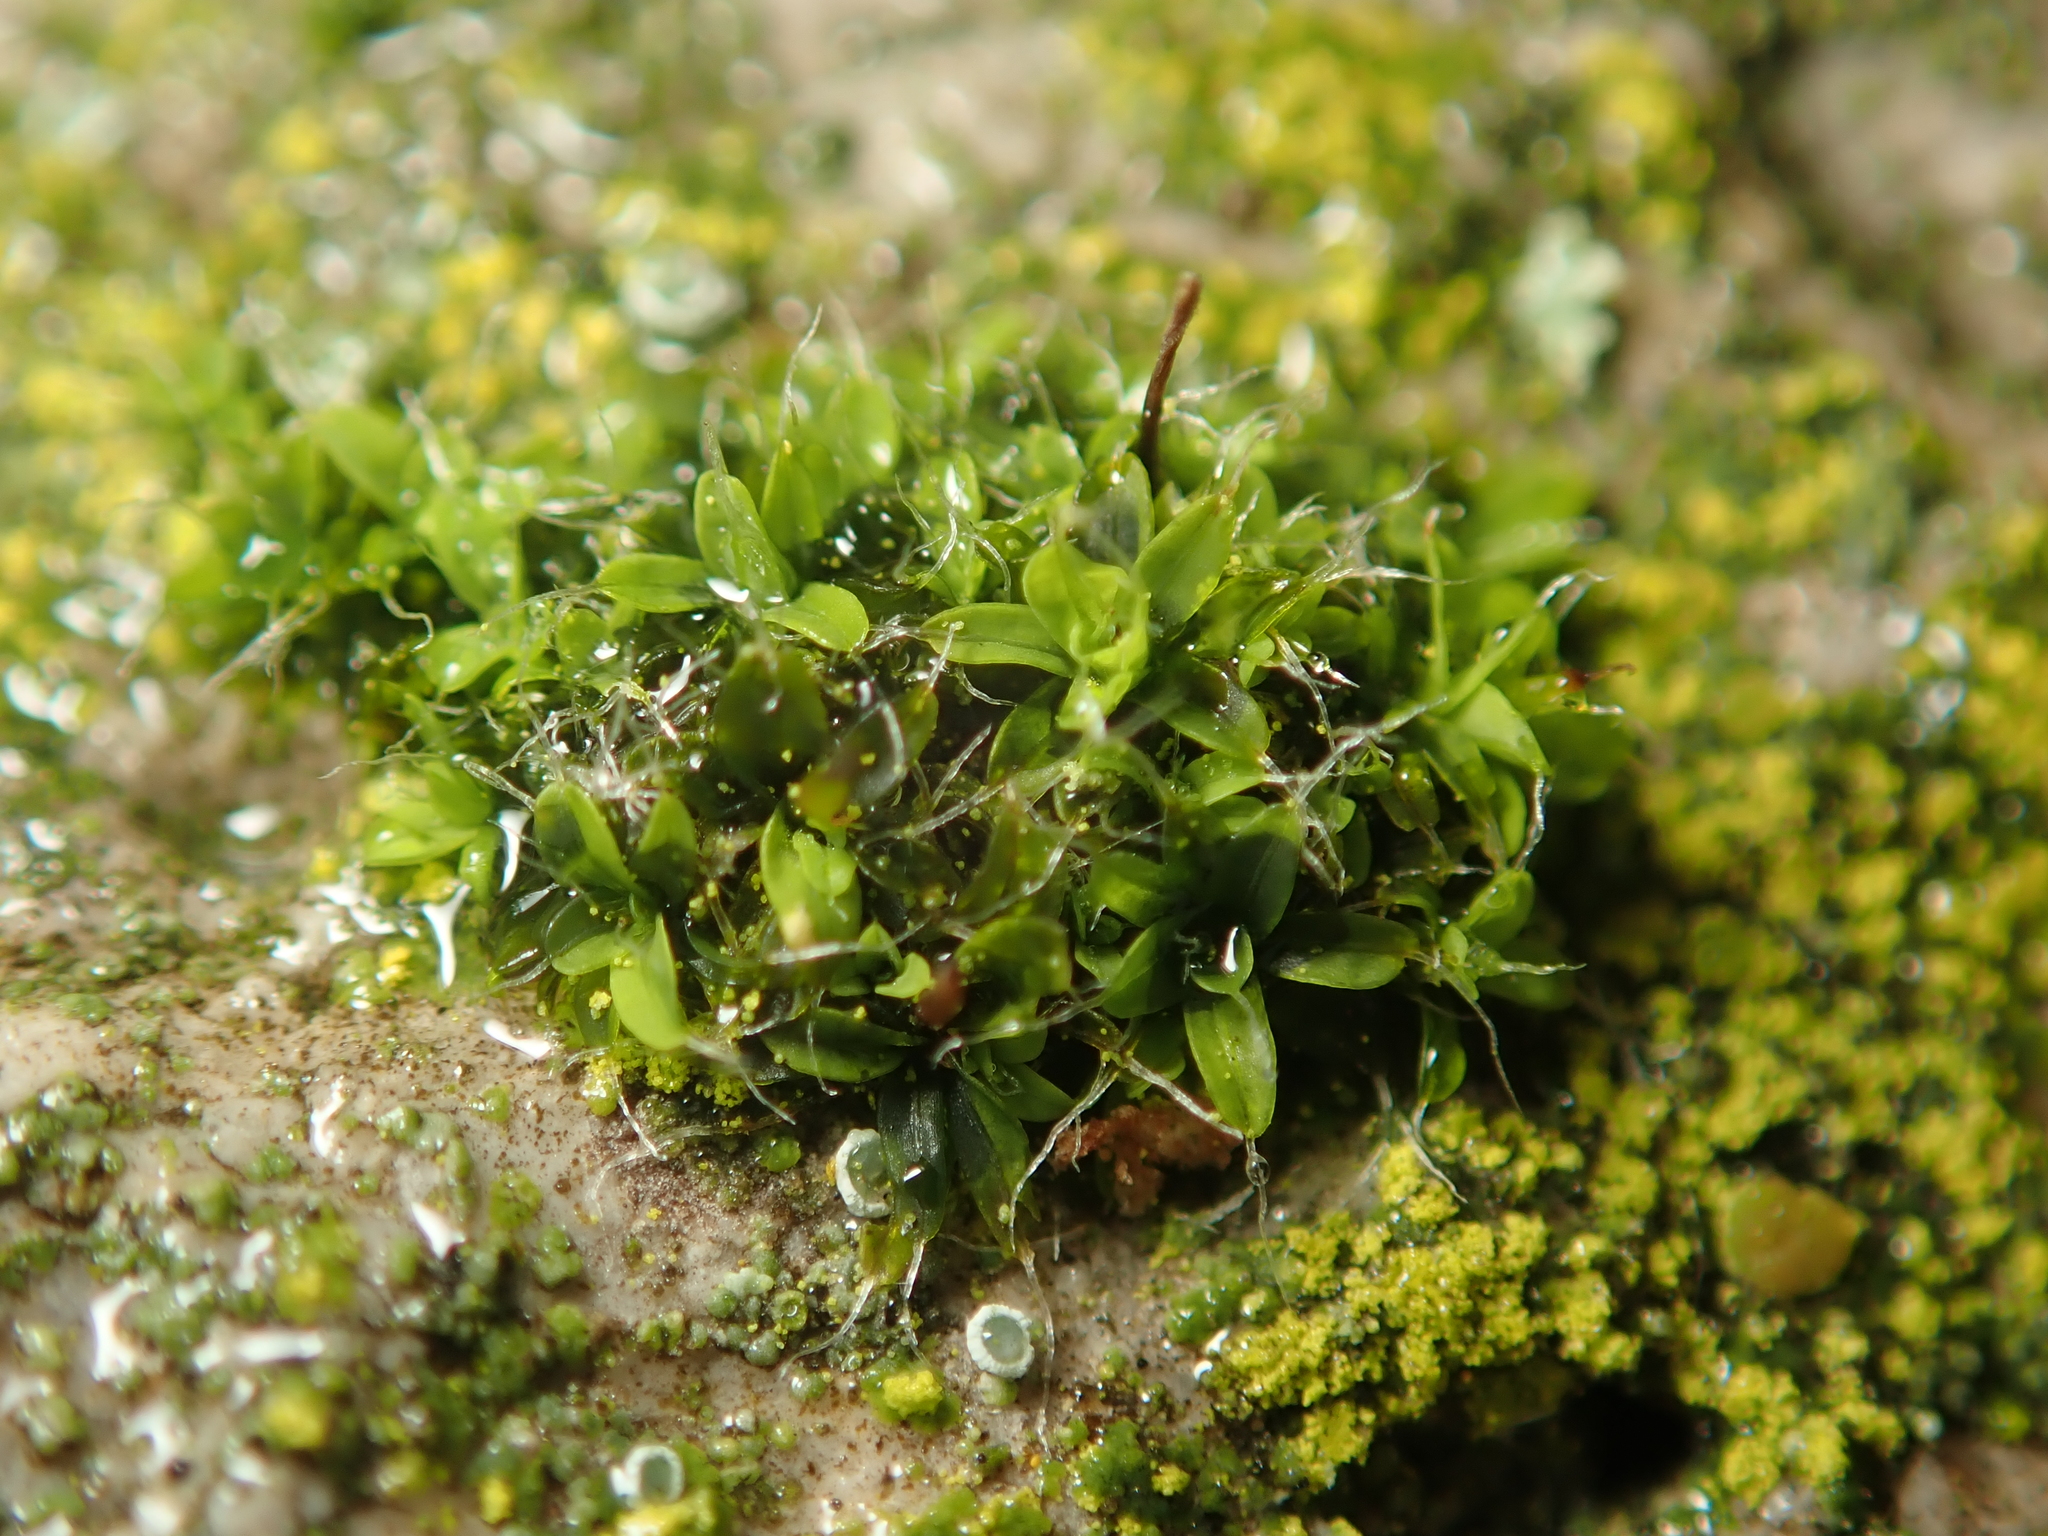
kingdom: Plantae
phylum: Bryophyta
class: Bryopsida
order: Pottiales
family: Pottiaceae
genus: Tortula
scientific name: Tortula muralis
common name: Wall screw-moss
